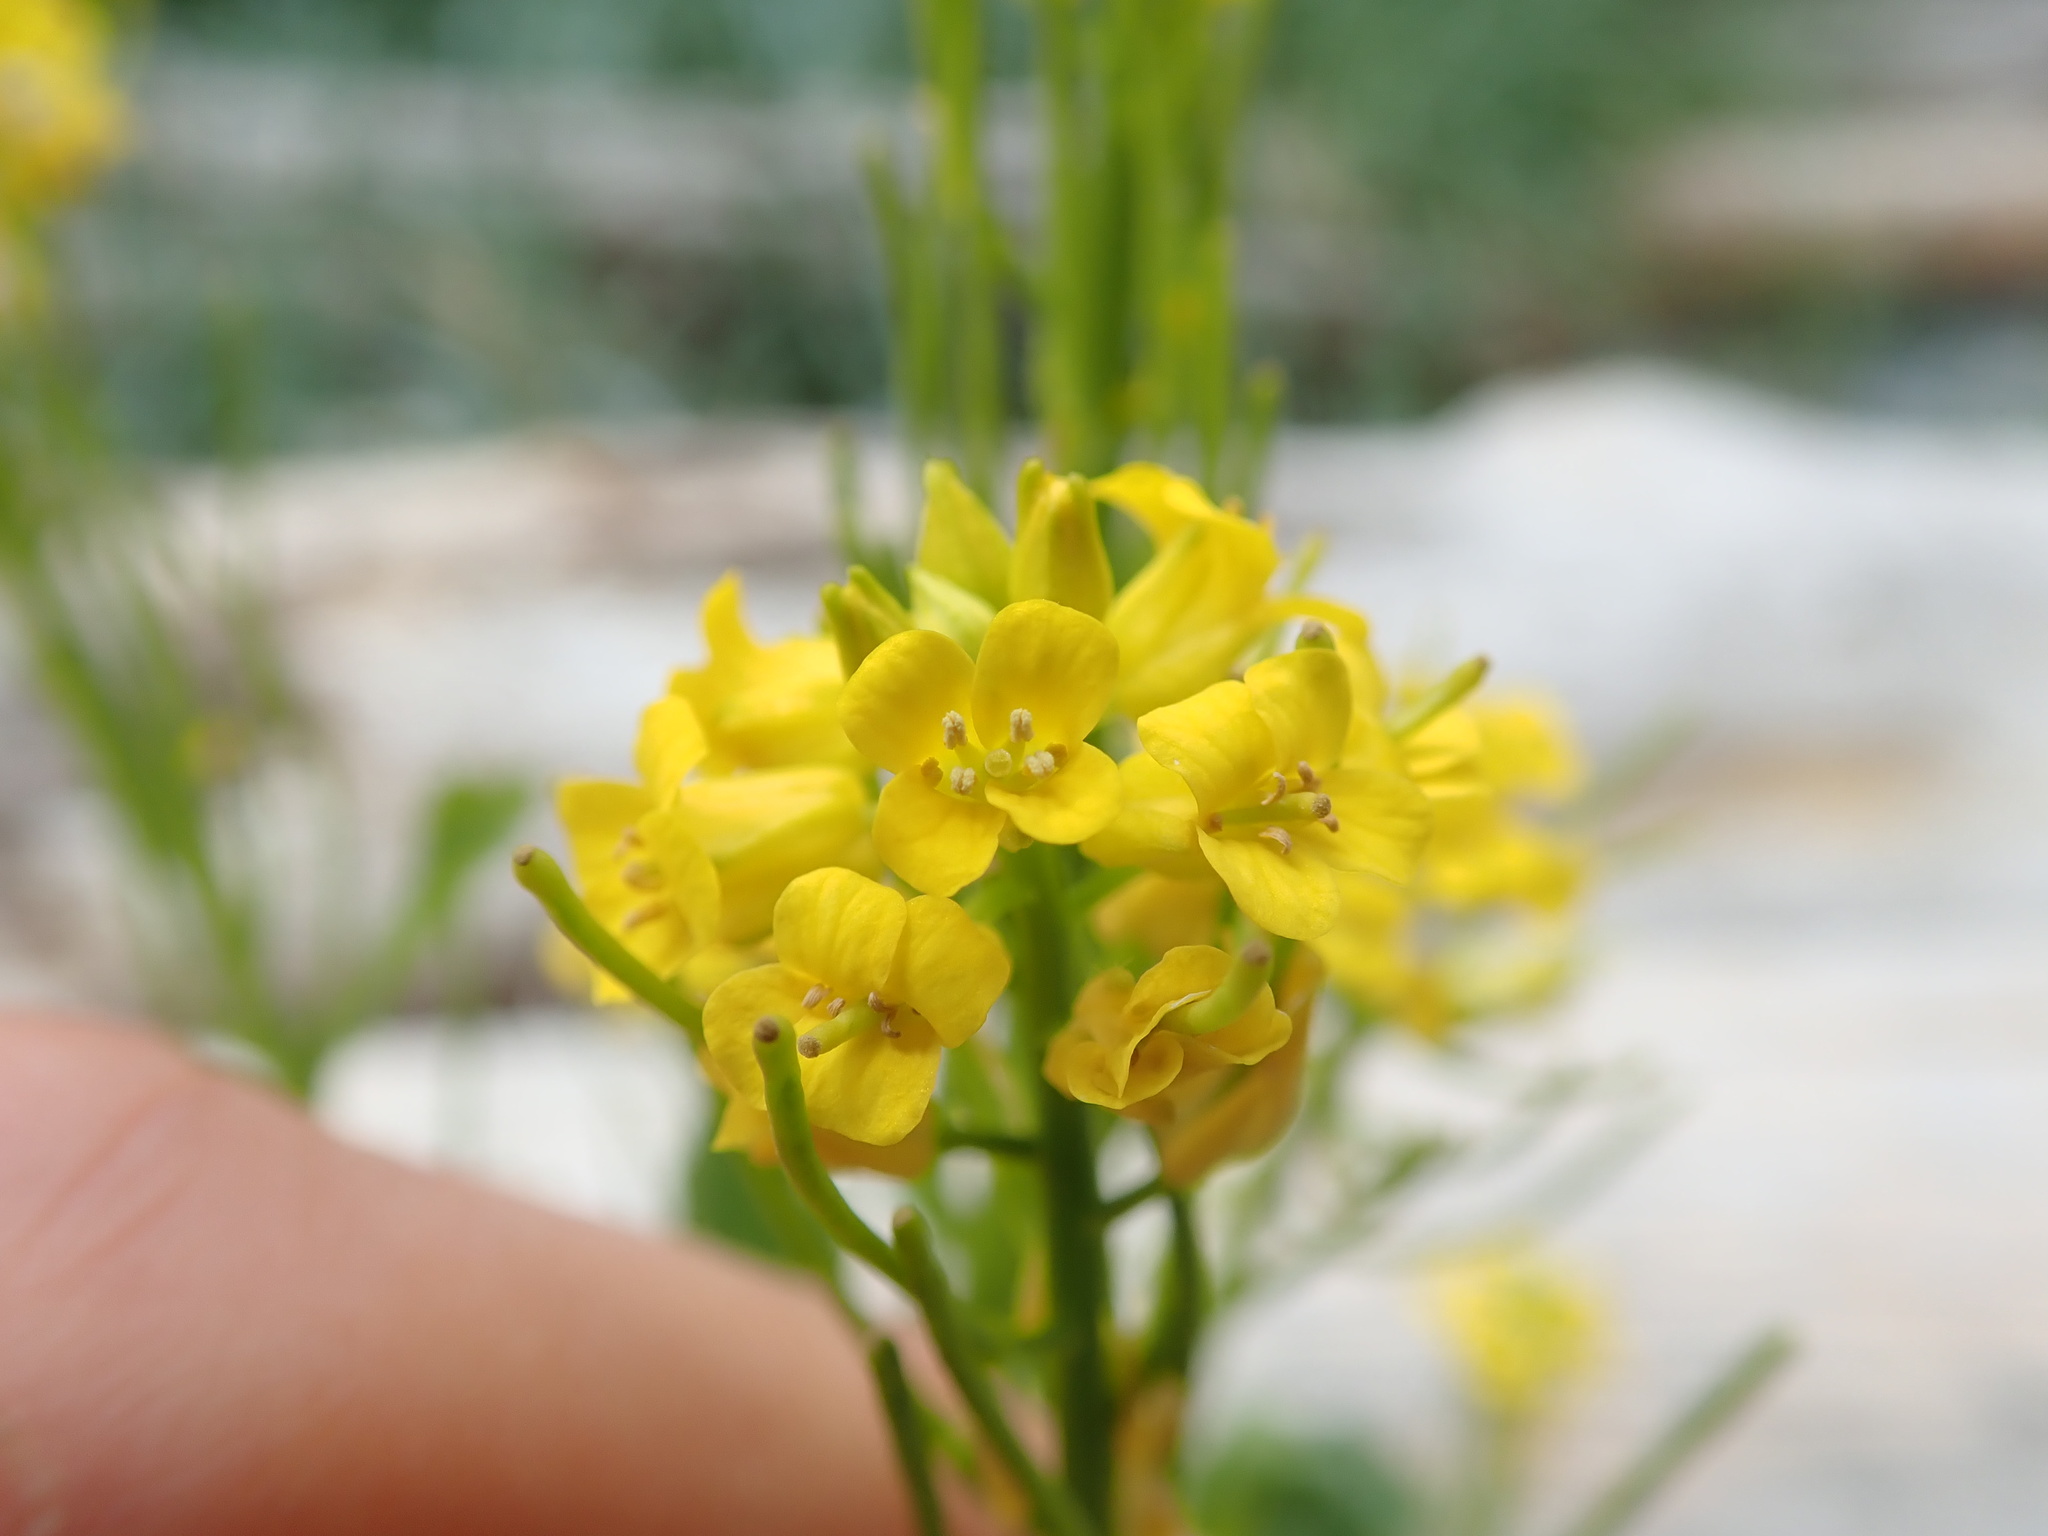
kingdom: Plantae
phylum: Tracheophyta
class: Magnoliopsida
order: Brassicales
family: Brassicaceae
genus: Barbarea
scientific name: Barbarea orthoceras
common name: American wintercress
